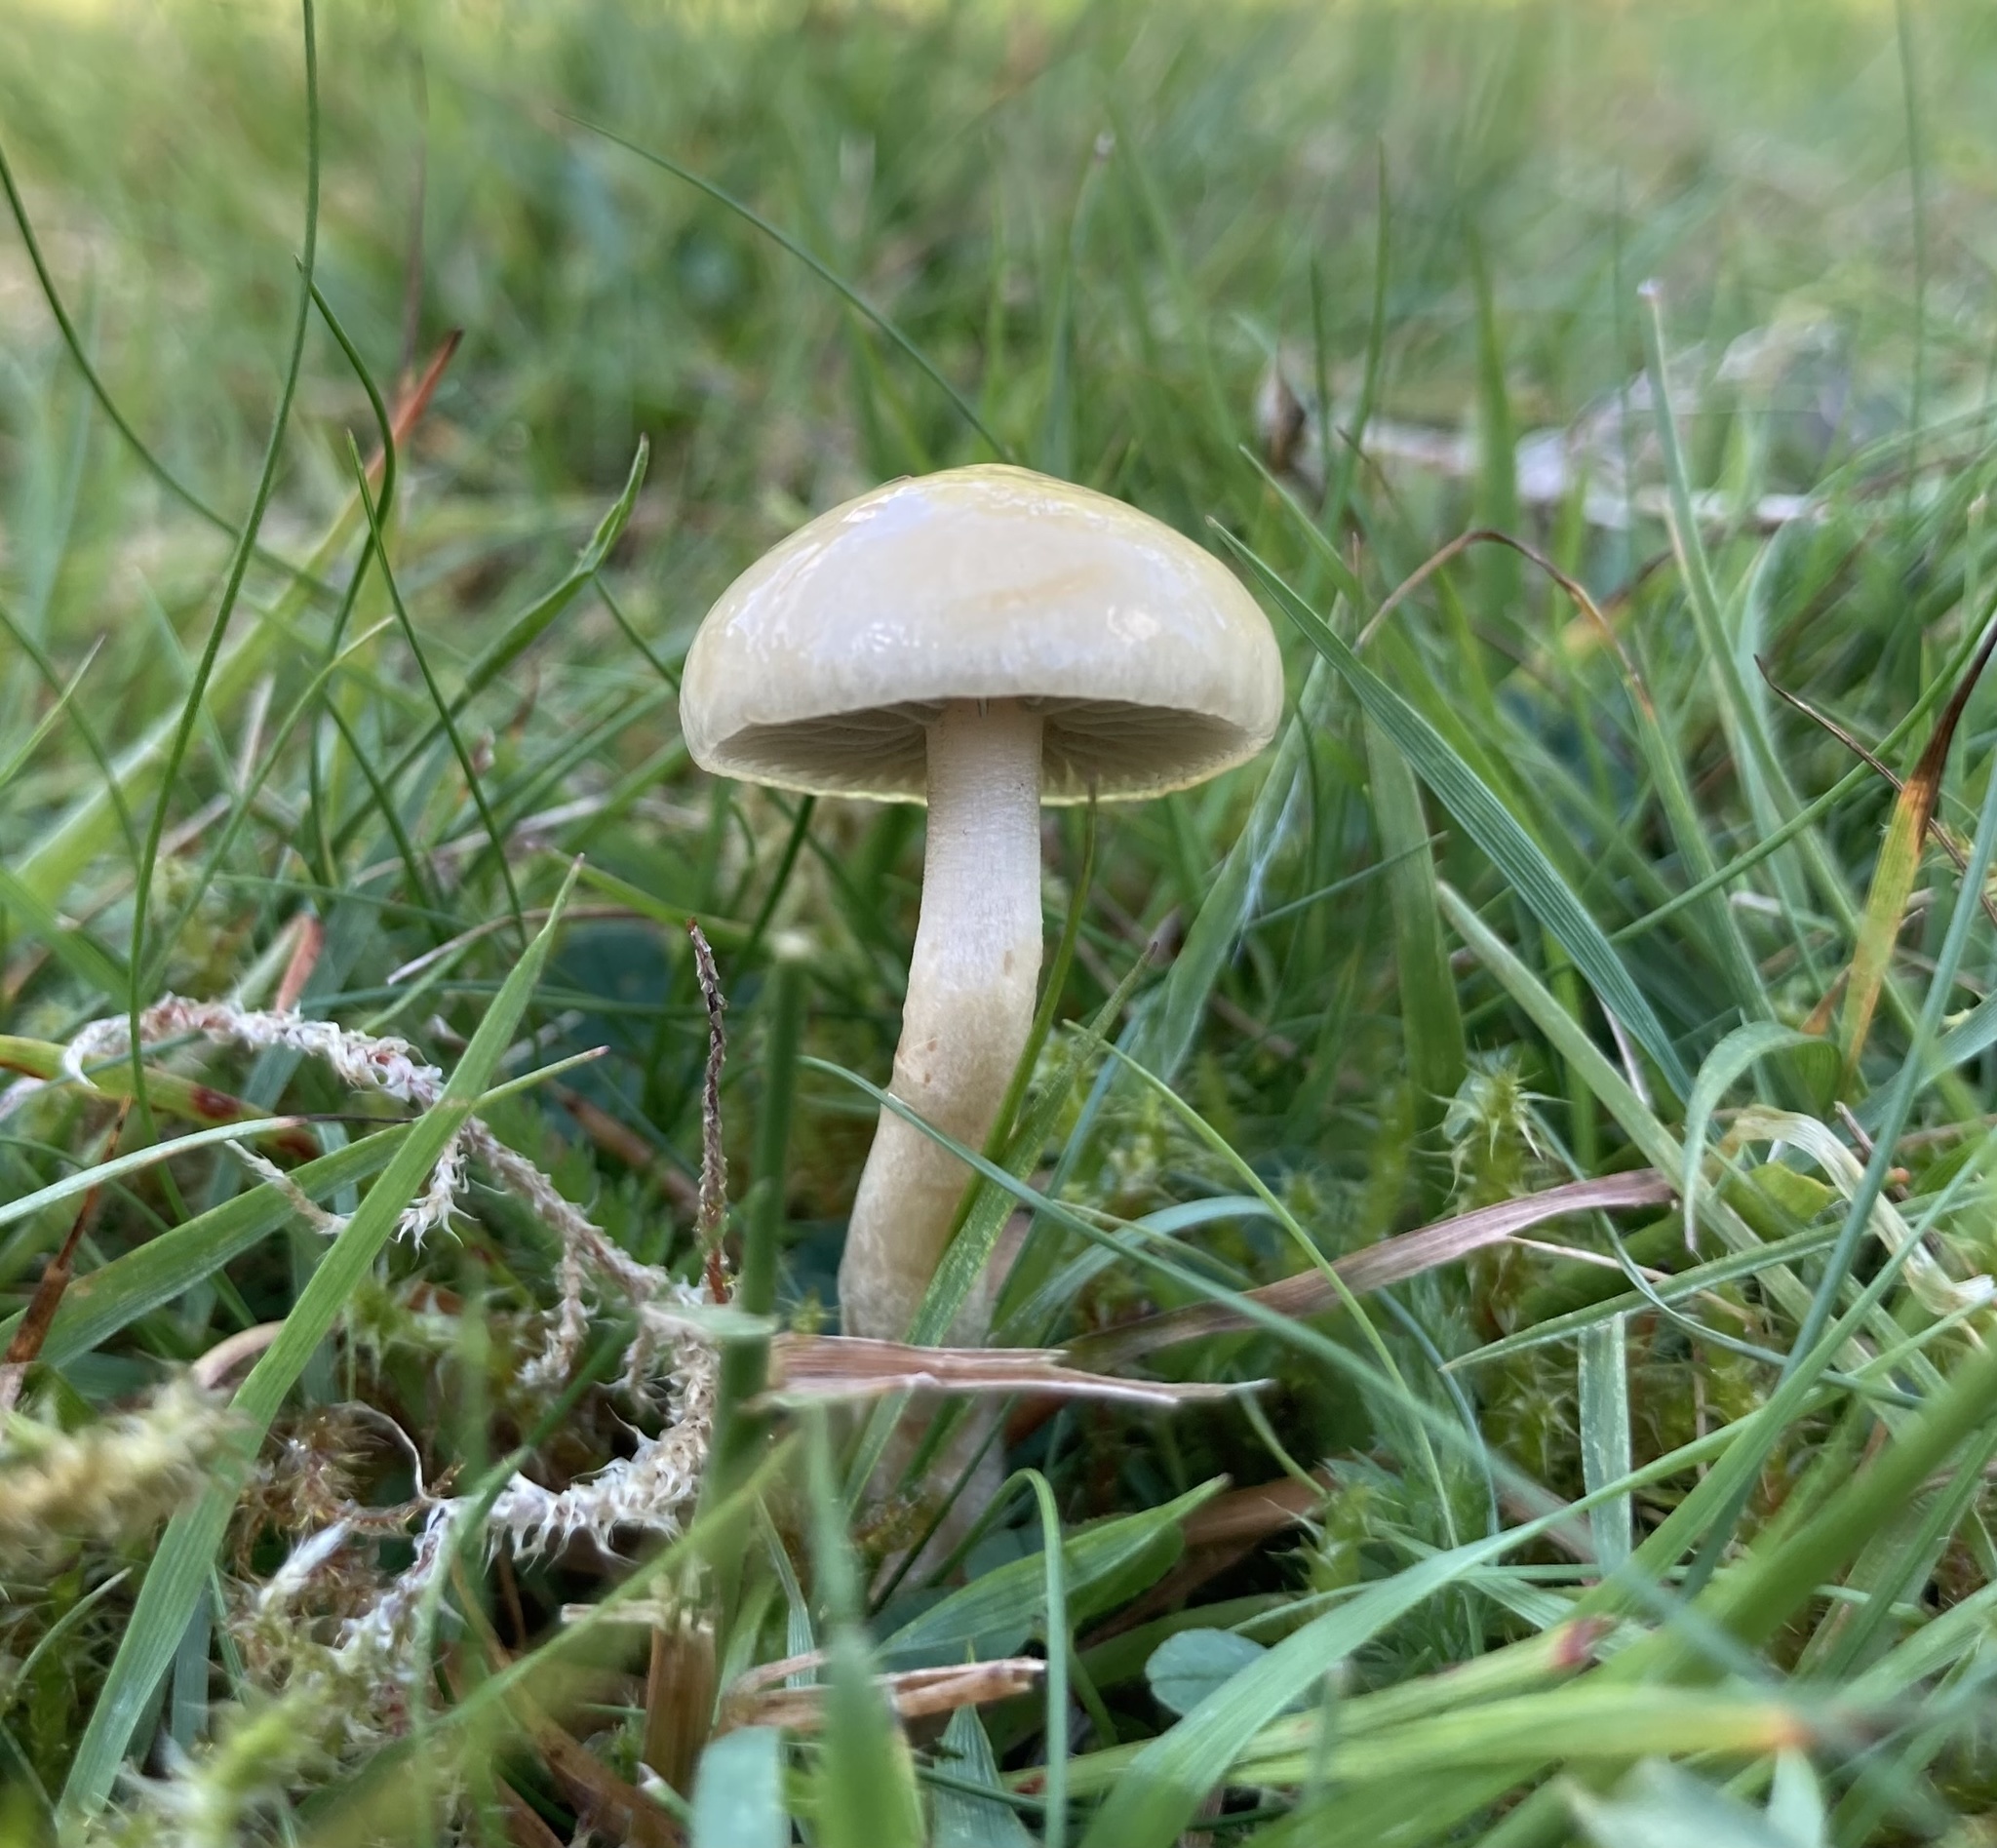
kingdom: Fungi
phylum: Basidiomycota
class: Agaricomycetes
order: Agaricales
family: Strophariaceae
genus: Protostropharia
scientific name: Protostropharia semiglobata
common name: Dung roundhead
